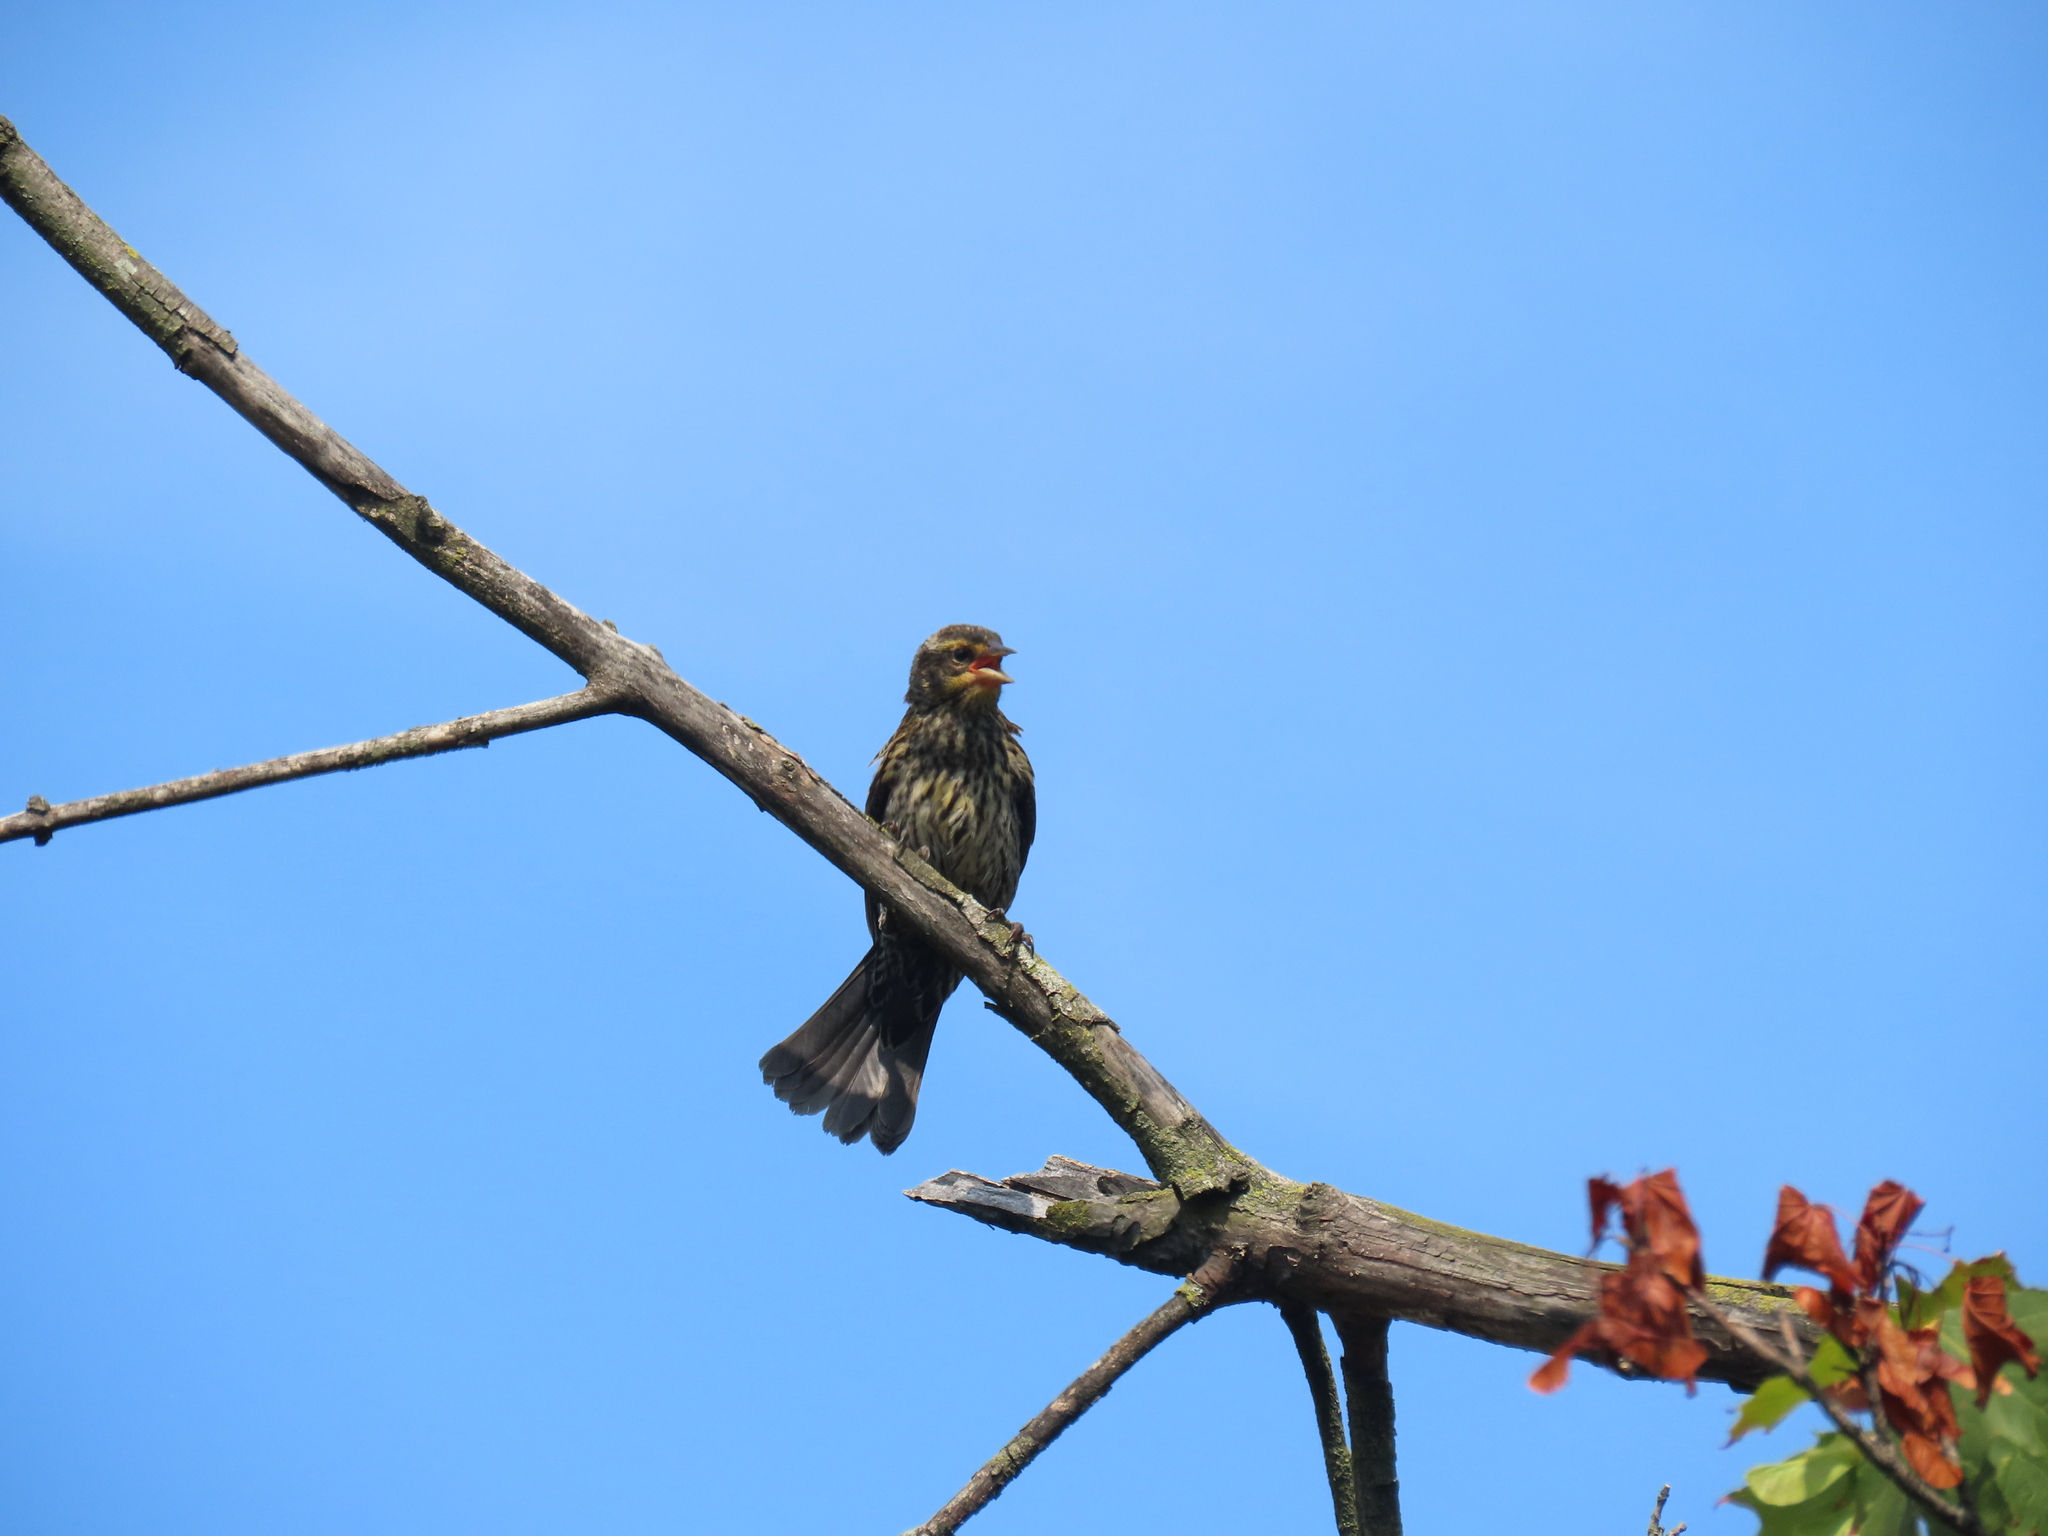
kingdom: Animalia
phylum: Chordata
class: Aves
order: Passeriformes
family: Icteridae
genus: Agelaius
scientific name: Agelaius phoeniceus
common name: Red-winged blackbird
